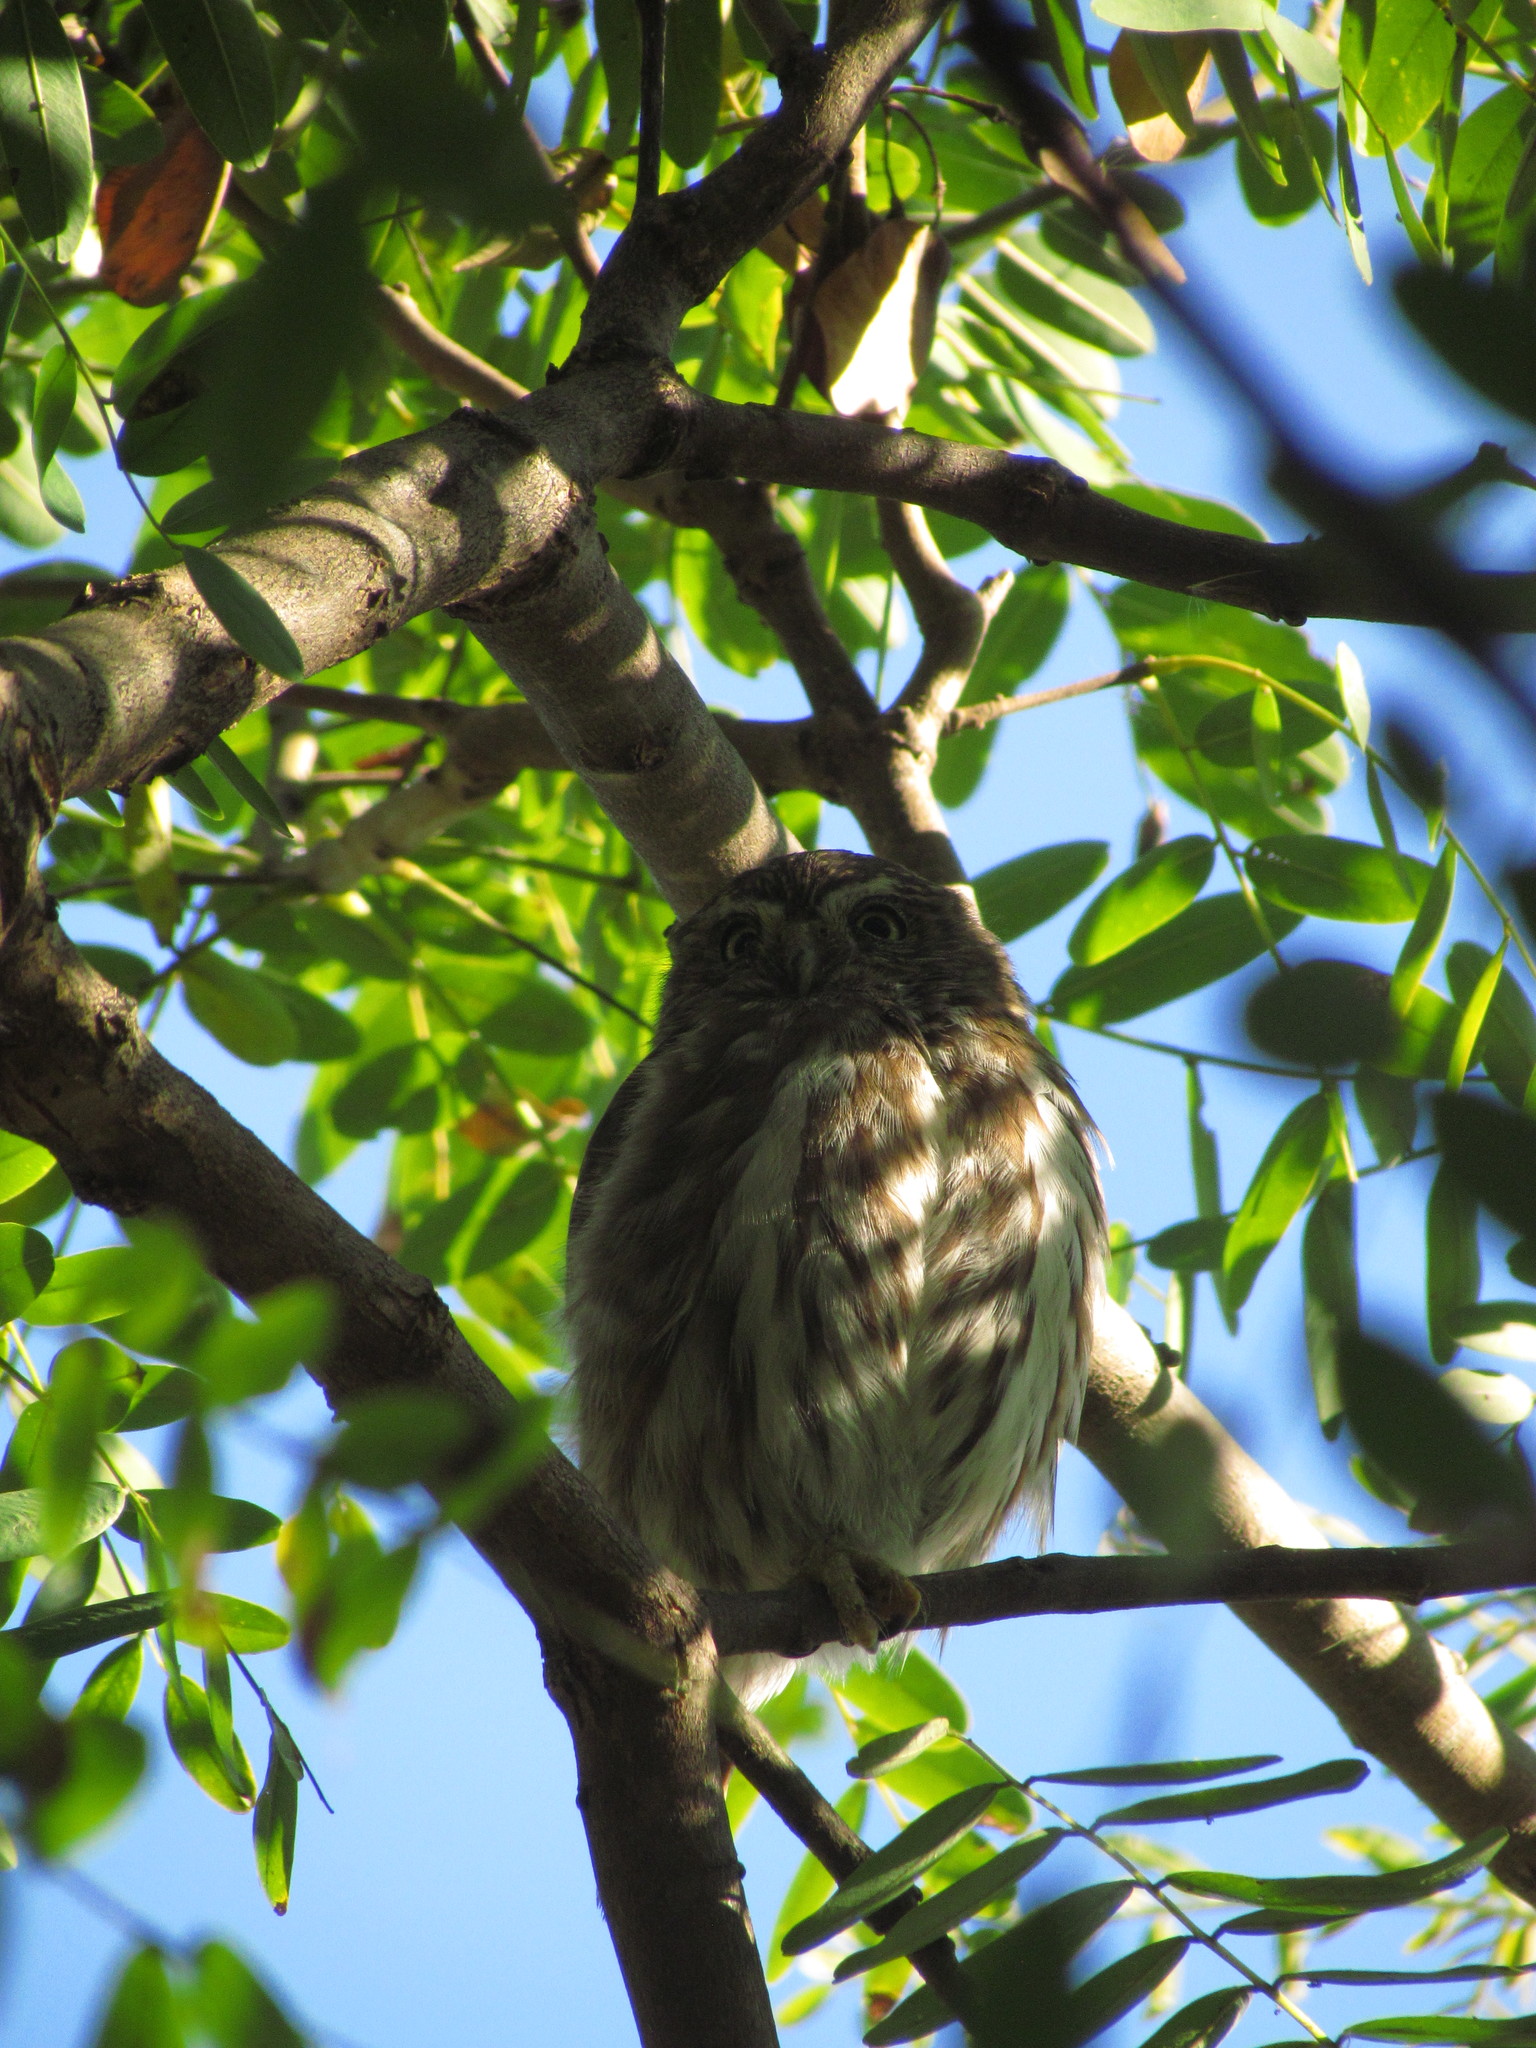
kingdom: Animalia
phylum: Chordata
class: Aves
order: Strigiformes
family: Strigidae
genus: Glaucidium
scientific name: Glaucidium brasilianum
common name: Ferruginous pygmy-owl
